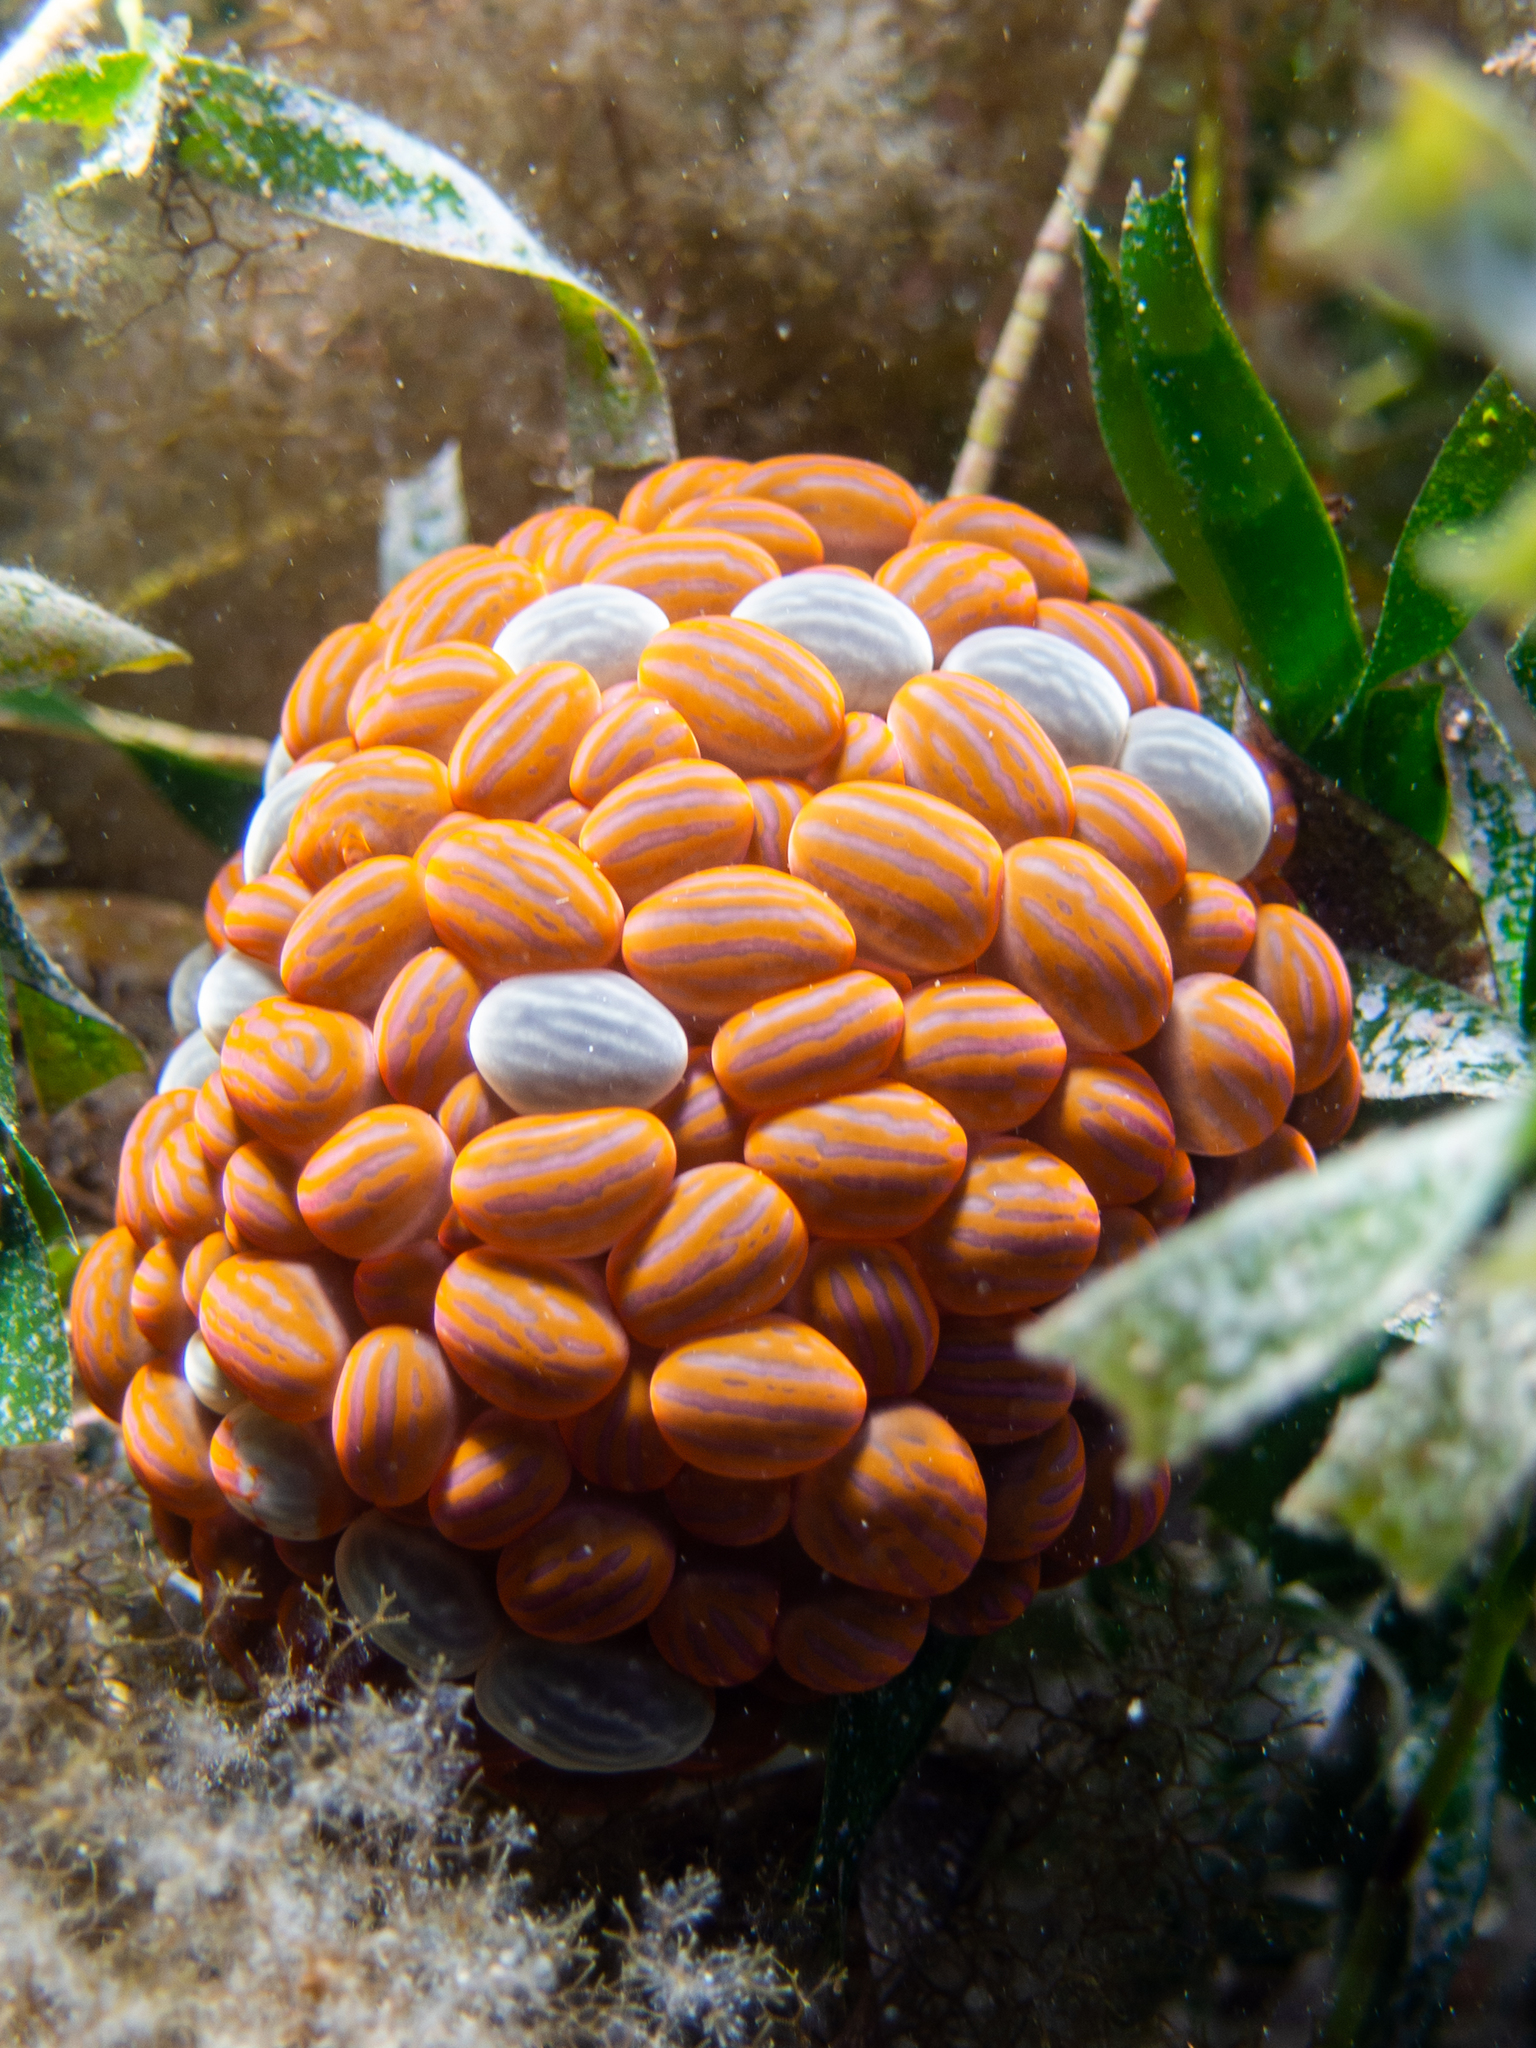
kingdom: Animalia
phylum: Cnidaria
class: Anthozoa
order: Actiniaria
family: Actiniidae
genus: Phlyctenactis
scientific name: Phlyctenactis tuberculosa
